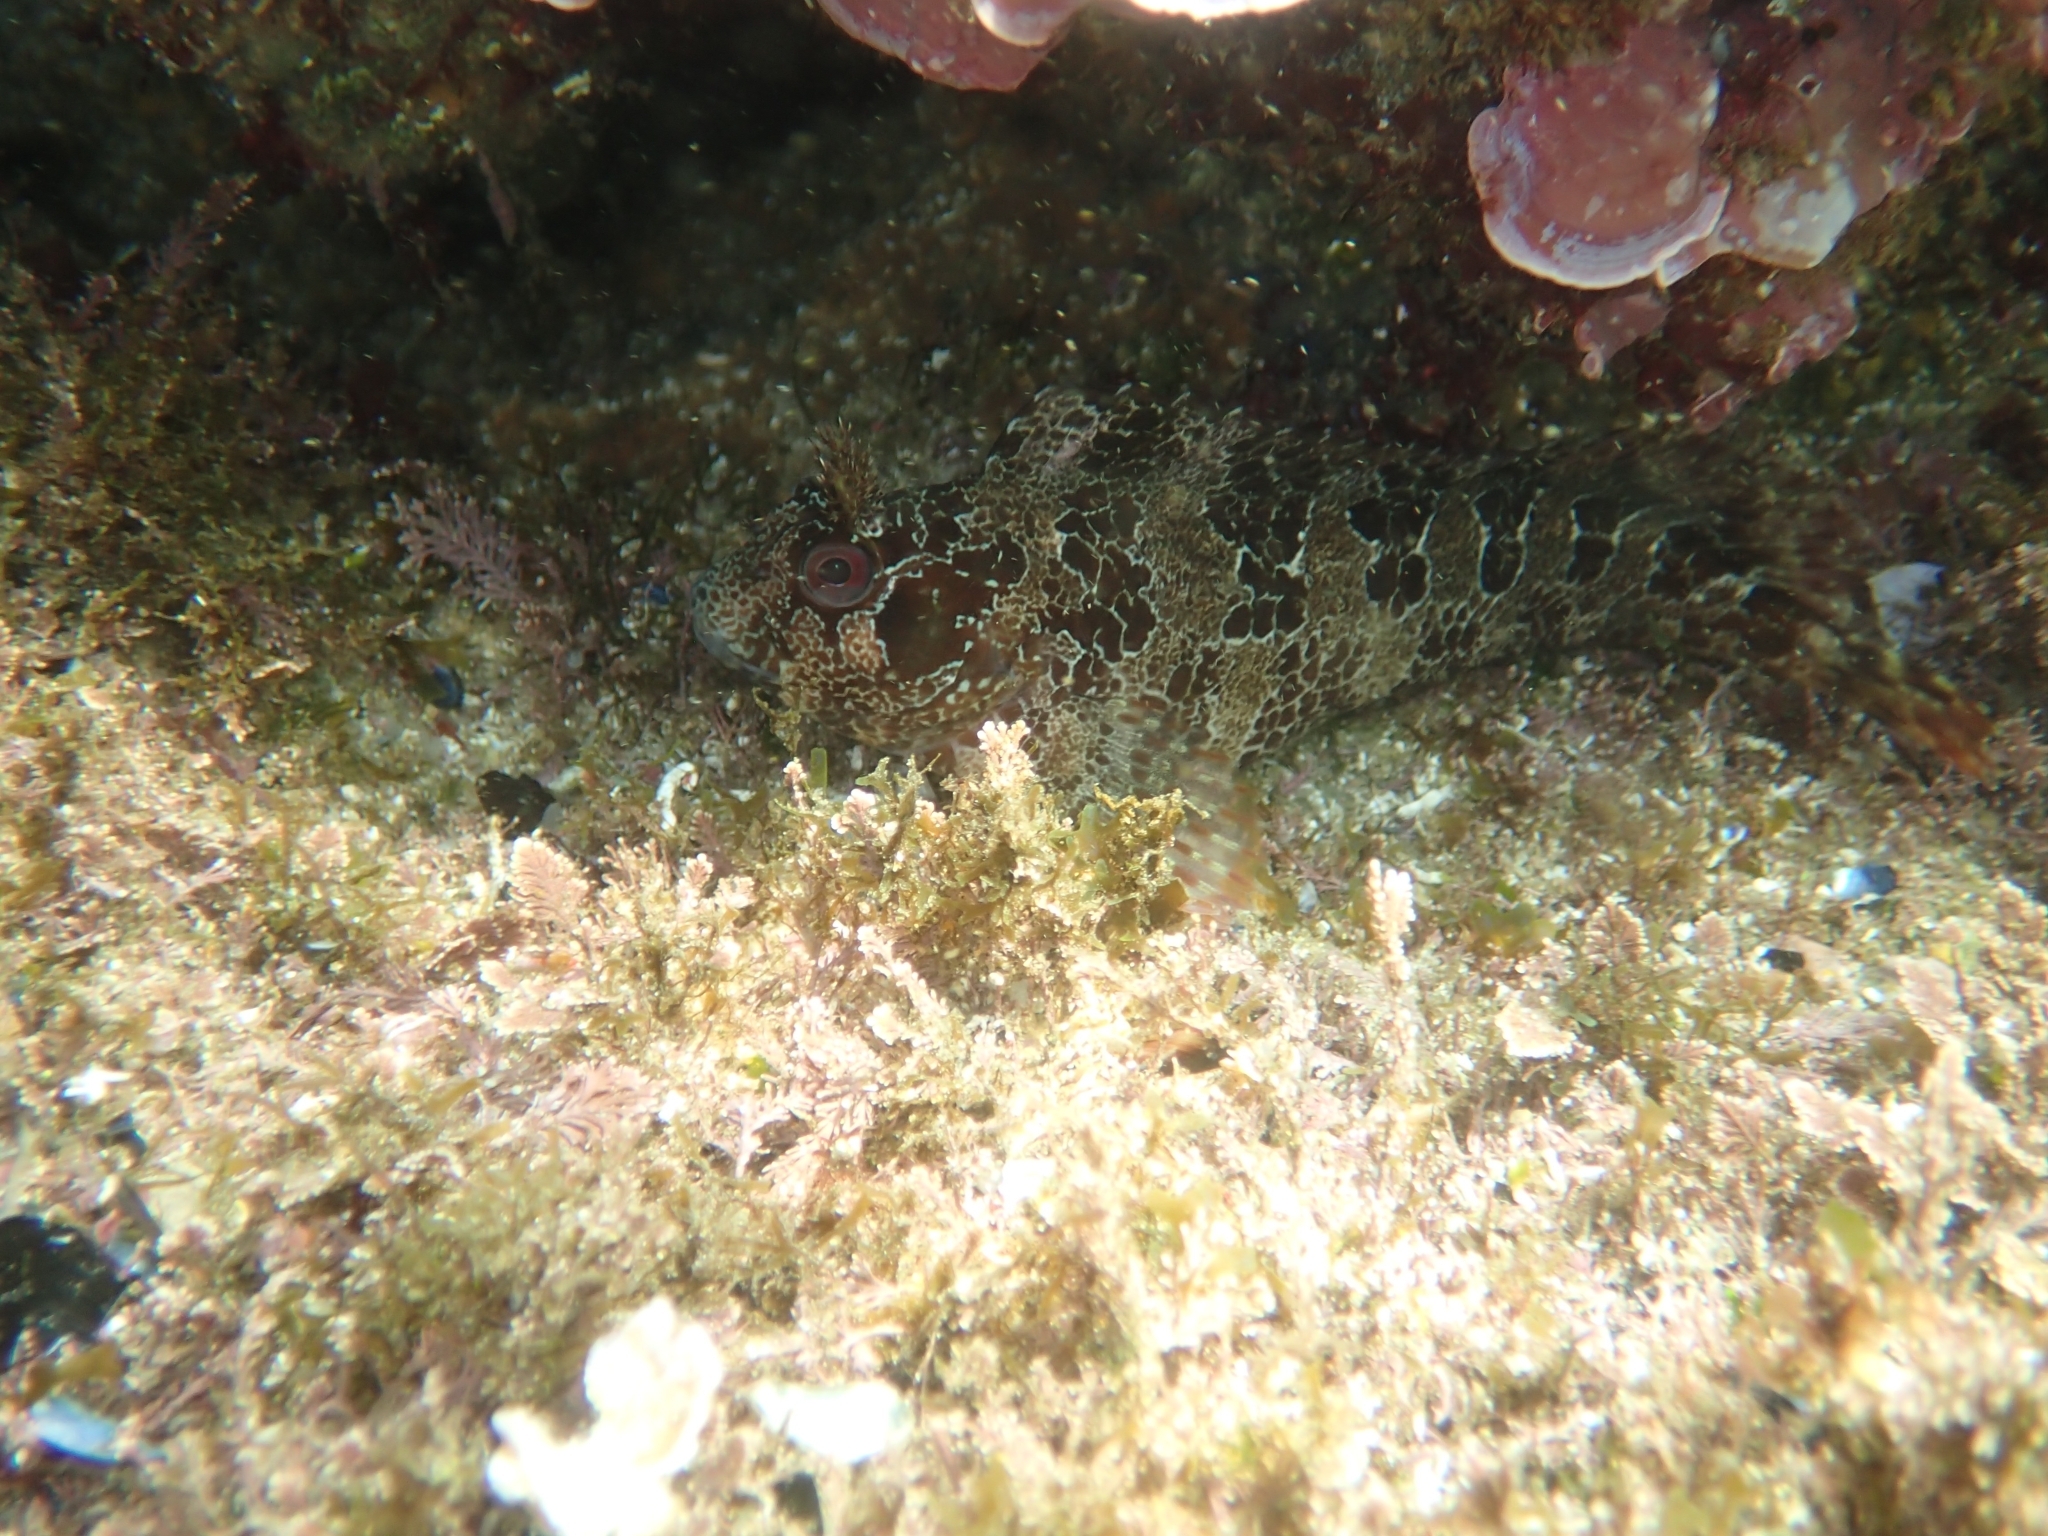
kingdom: Animalia
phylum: Chordata
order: Perciformes
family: Blenniidae
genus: Parablennius
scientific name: Parablennius gattorugine
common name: Tompot blenny
